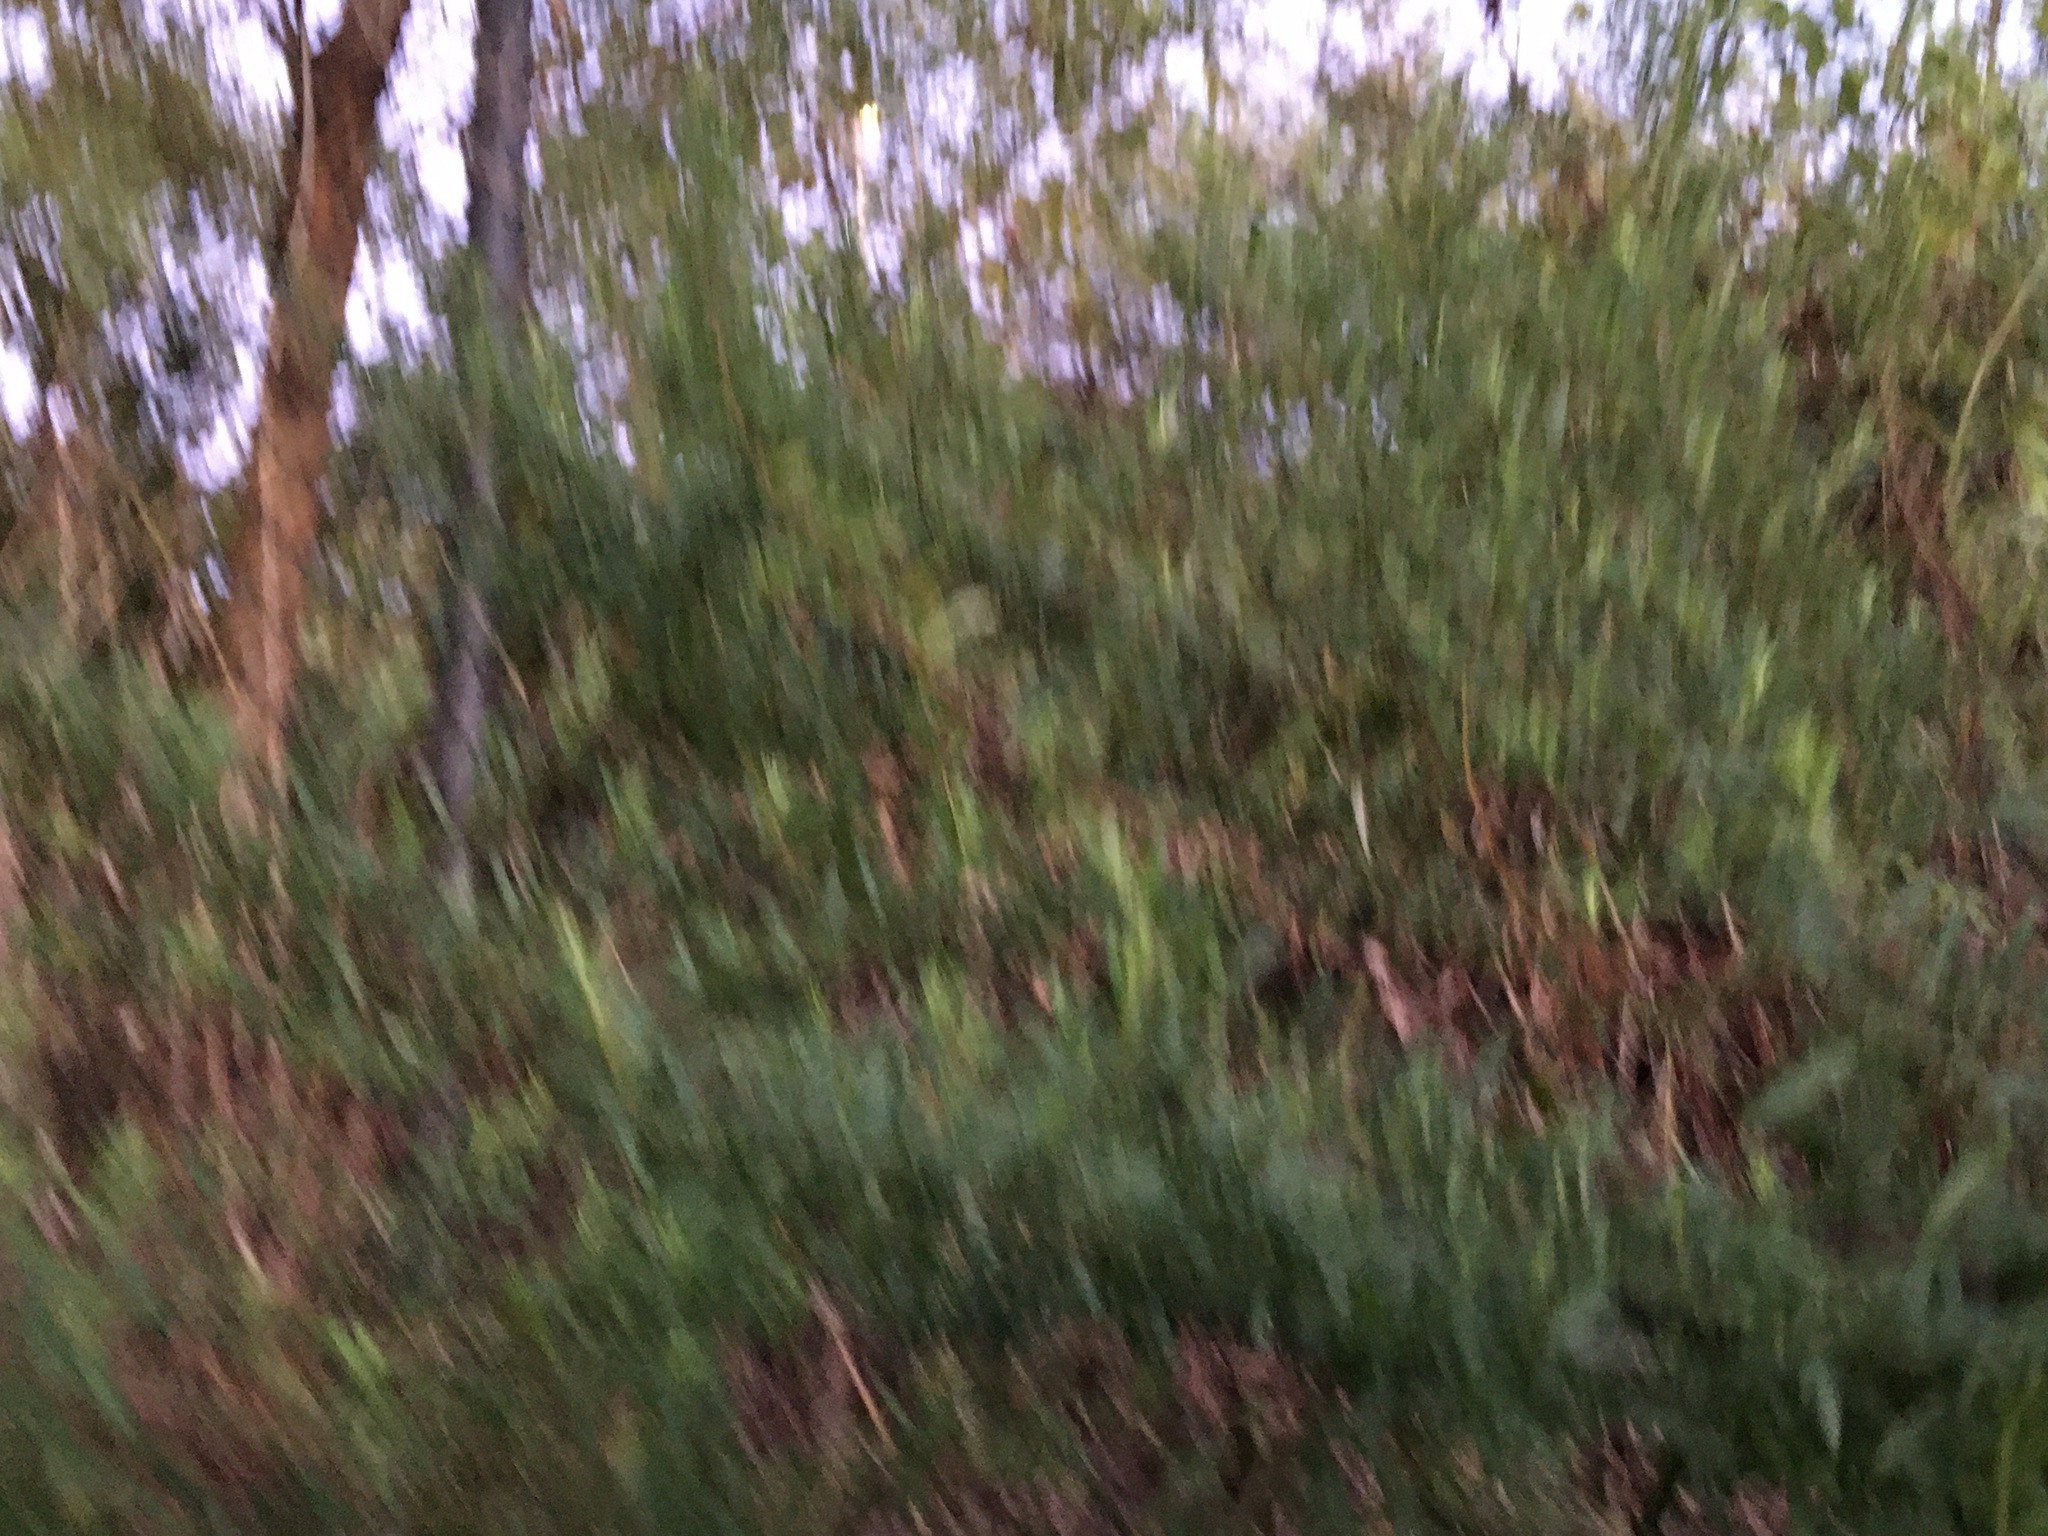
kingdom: Plantae
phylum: Tracheophyta
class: Magnoliopsida
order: Asterales
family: Asteraceae
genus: Artemisia
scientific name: Artemisia vulgaris
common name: Mugwort
